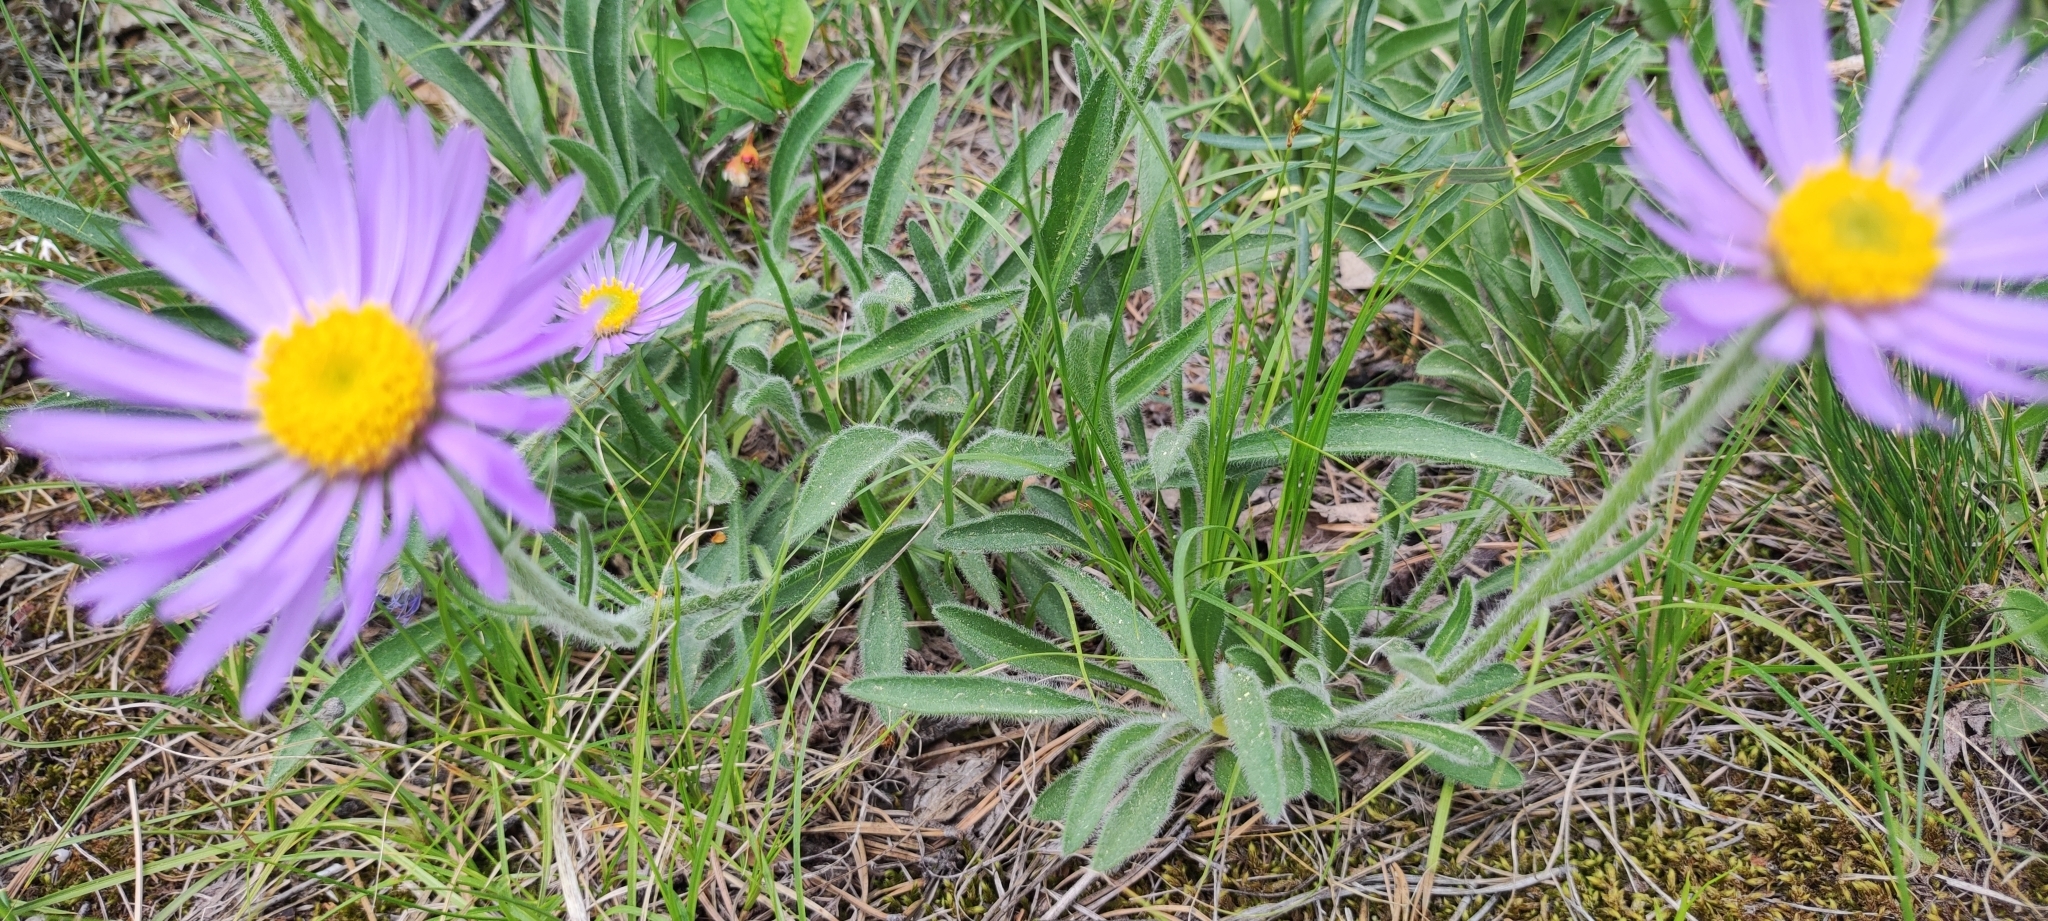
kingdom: Plantae
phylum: Tracheophyta
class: Magnoliopsida
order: Asterales
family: Asteraceae
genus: Aster
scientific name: Aster alpinus
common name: Alpine aster
